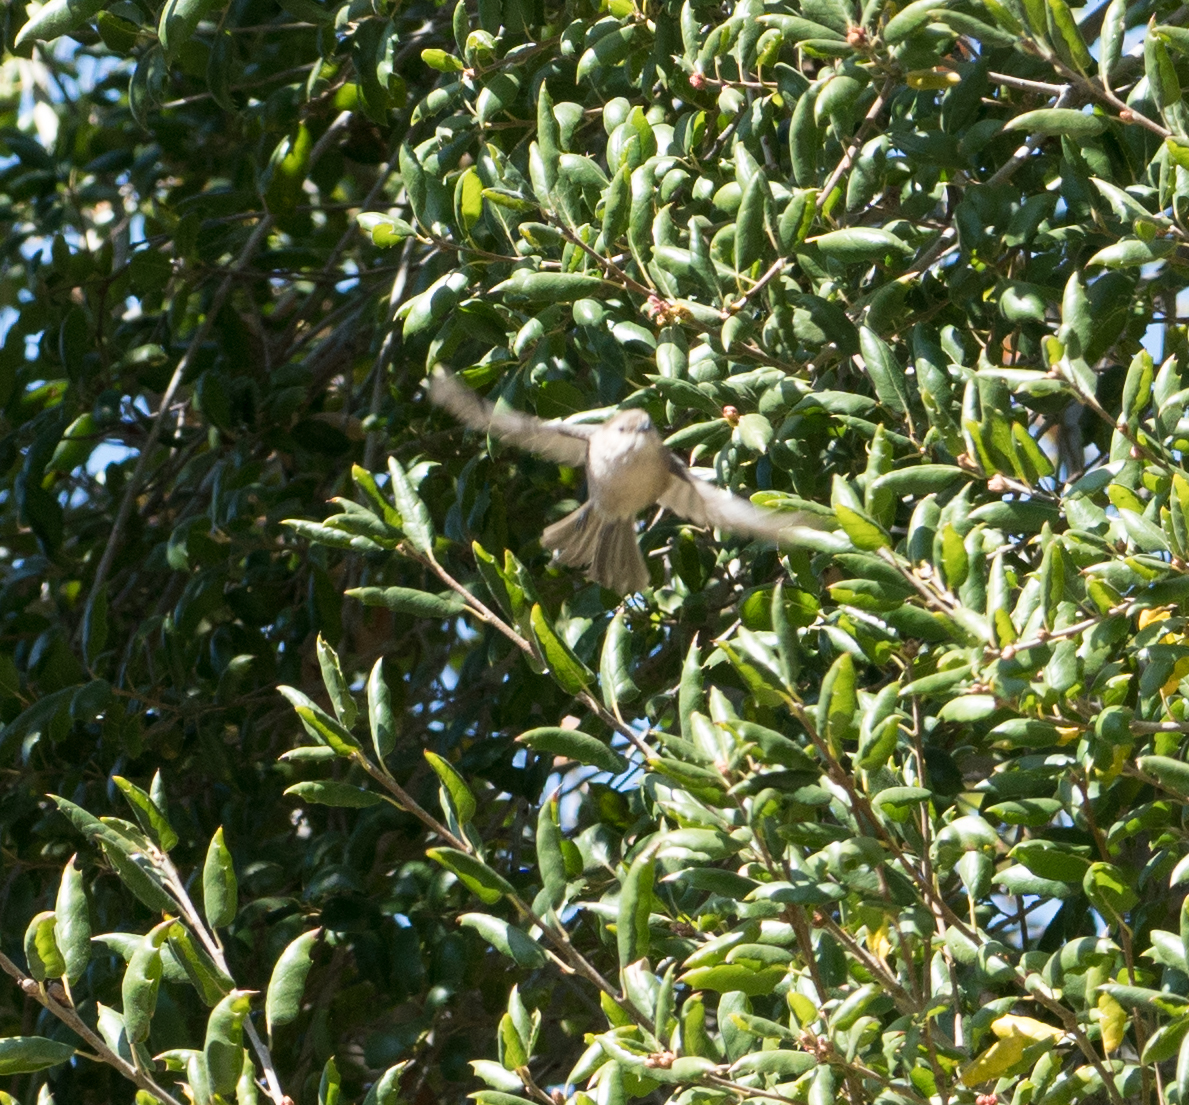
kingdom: Animalia
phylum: Chordata
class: Aves
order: Passeriformes
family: Aegithalidae
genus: Psaltriparus
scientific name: Psaltriparus minimus
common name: American bushtit
